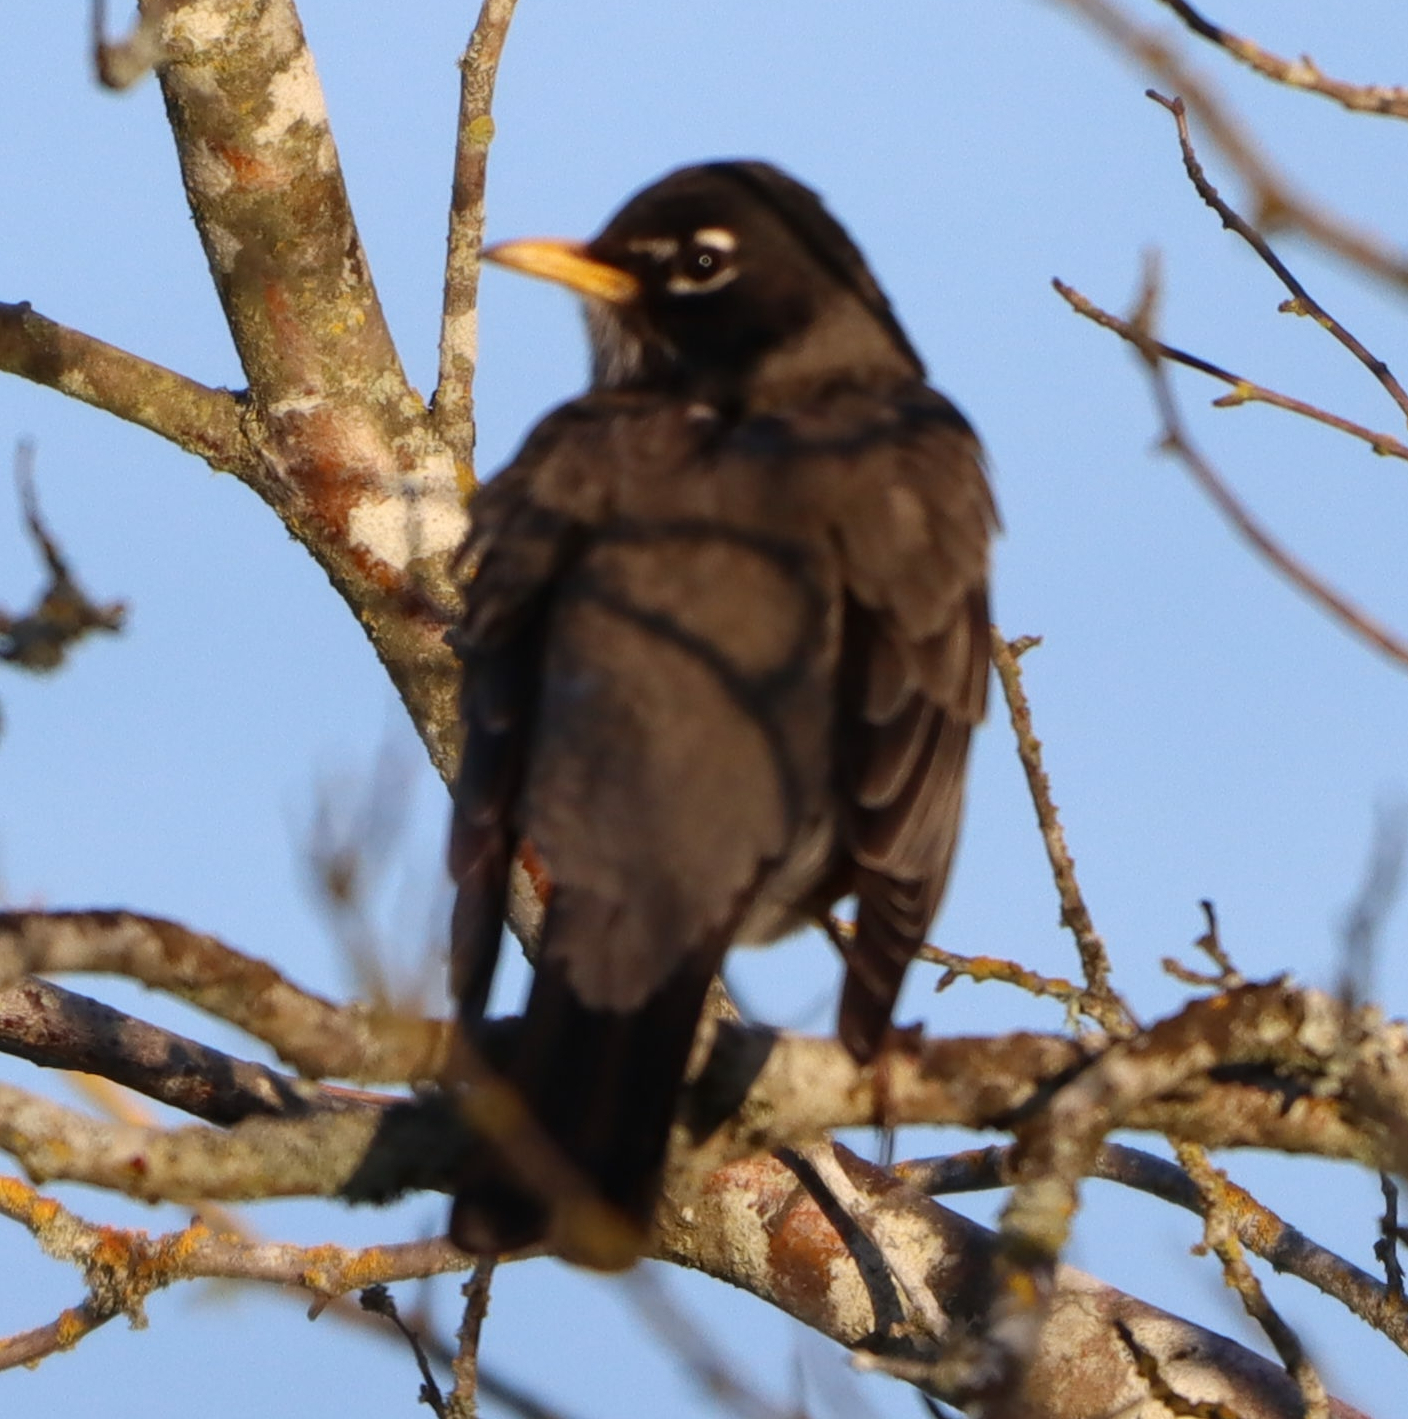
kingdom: Animalia
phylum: Chordata
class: Aves
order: Passeriformes
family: Turdidae
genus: Turdus
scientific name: Turdus migratorius
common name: American robin
